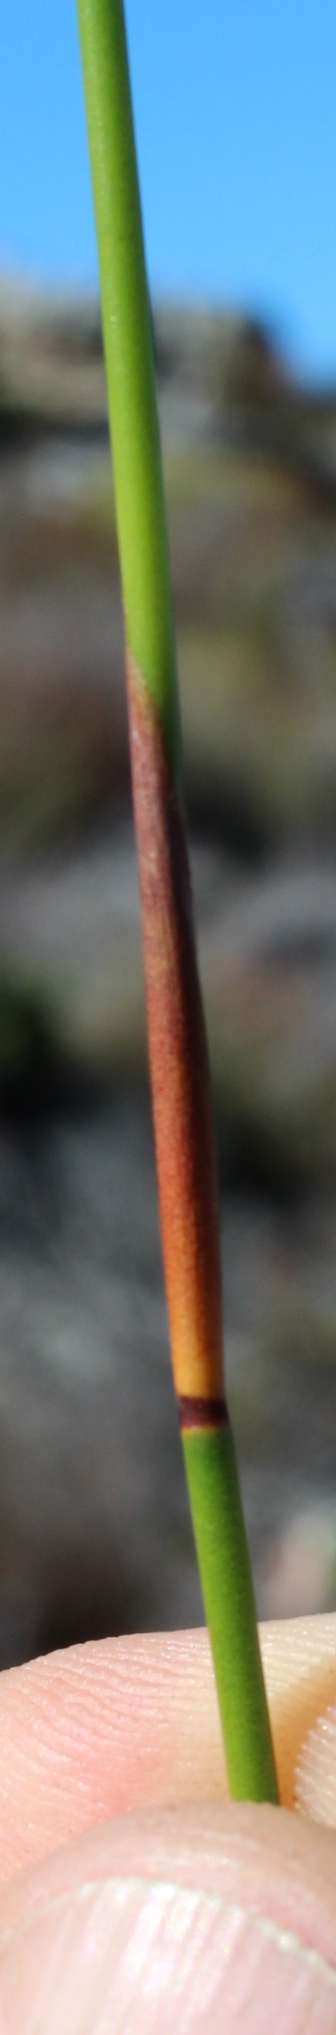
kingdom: Plantae
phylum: Tracheophyta
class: Liliopsida
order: Poales
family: Restionaceae
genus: Staberoha
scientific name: Staberoha banksii
